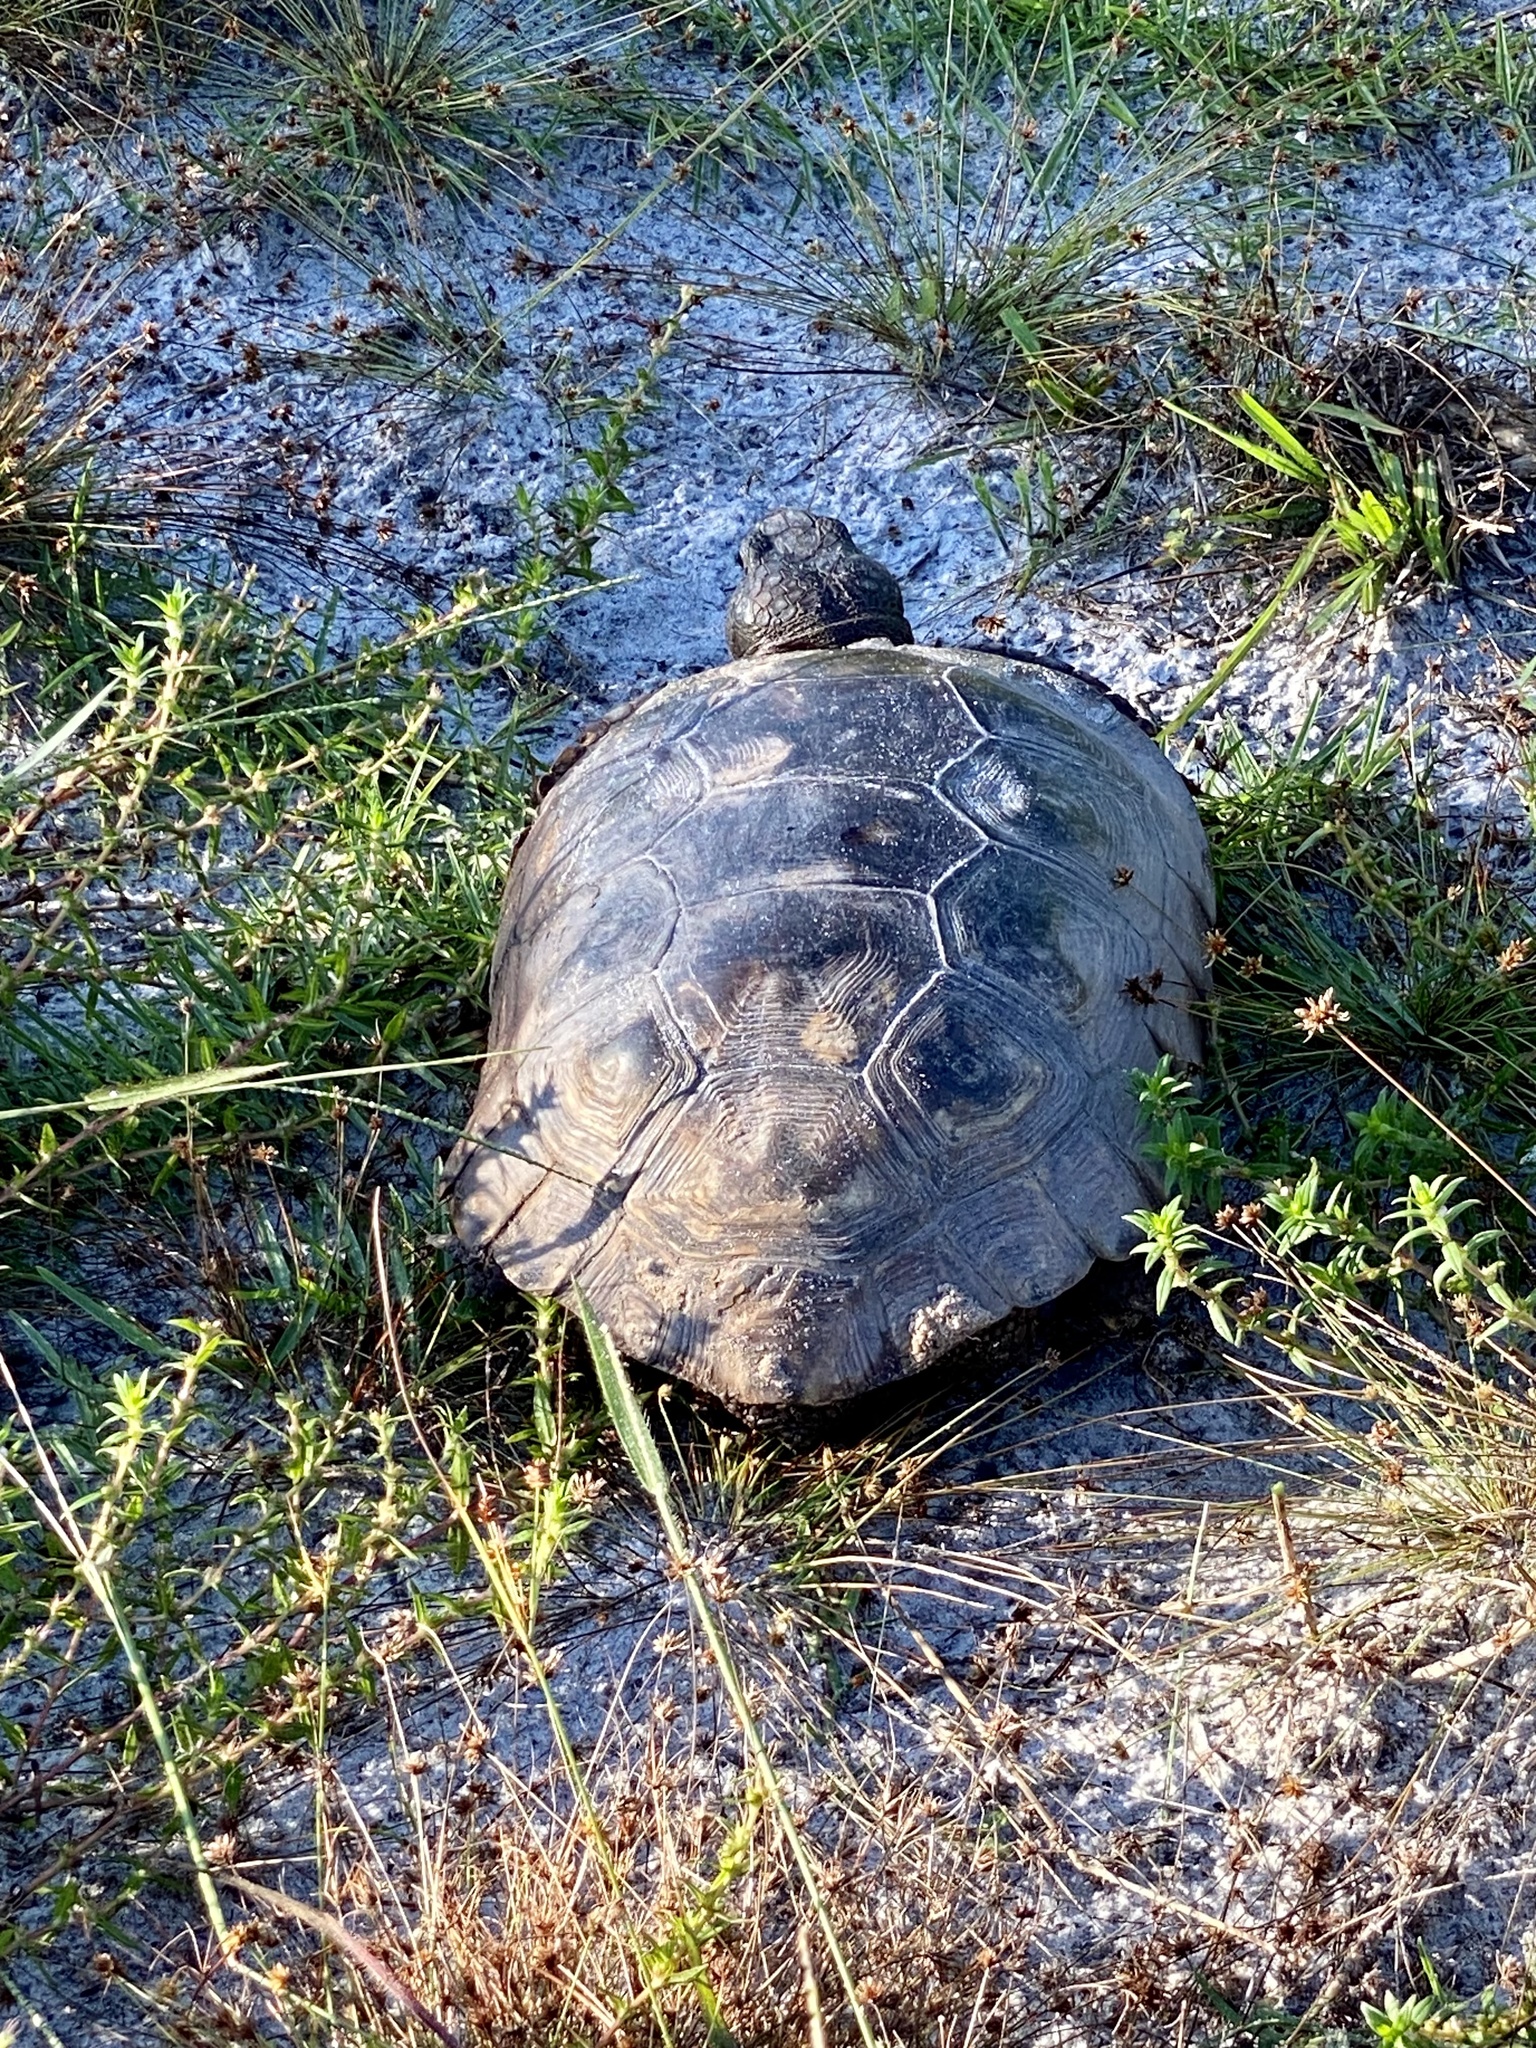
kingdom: Animalia
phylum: Chordata
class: Testudines
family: Testudinidae
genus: Gopherus
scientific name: Gopherus polyphemus
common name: Florida gopher tortoise
